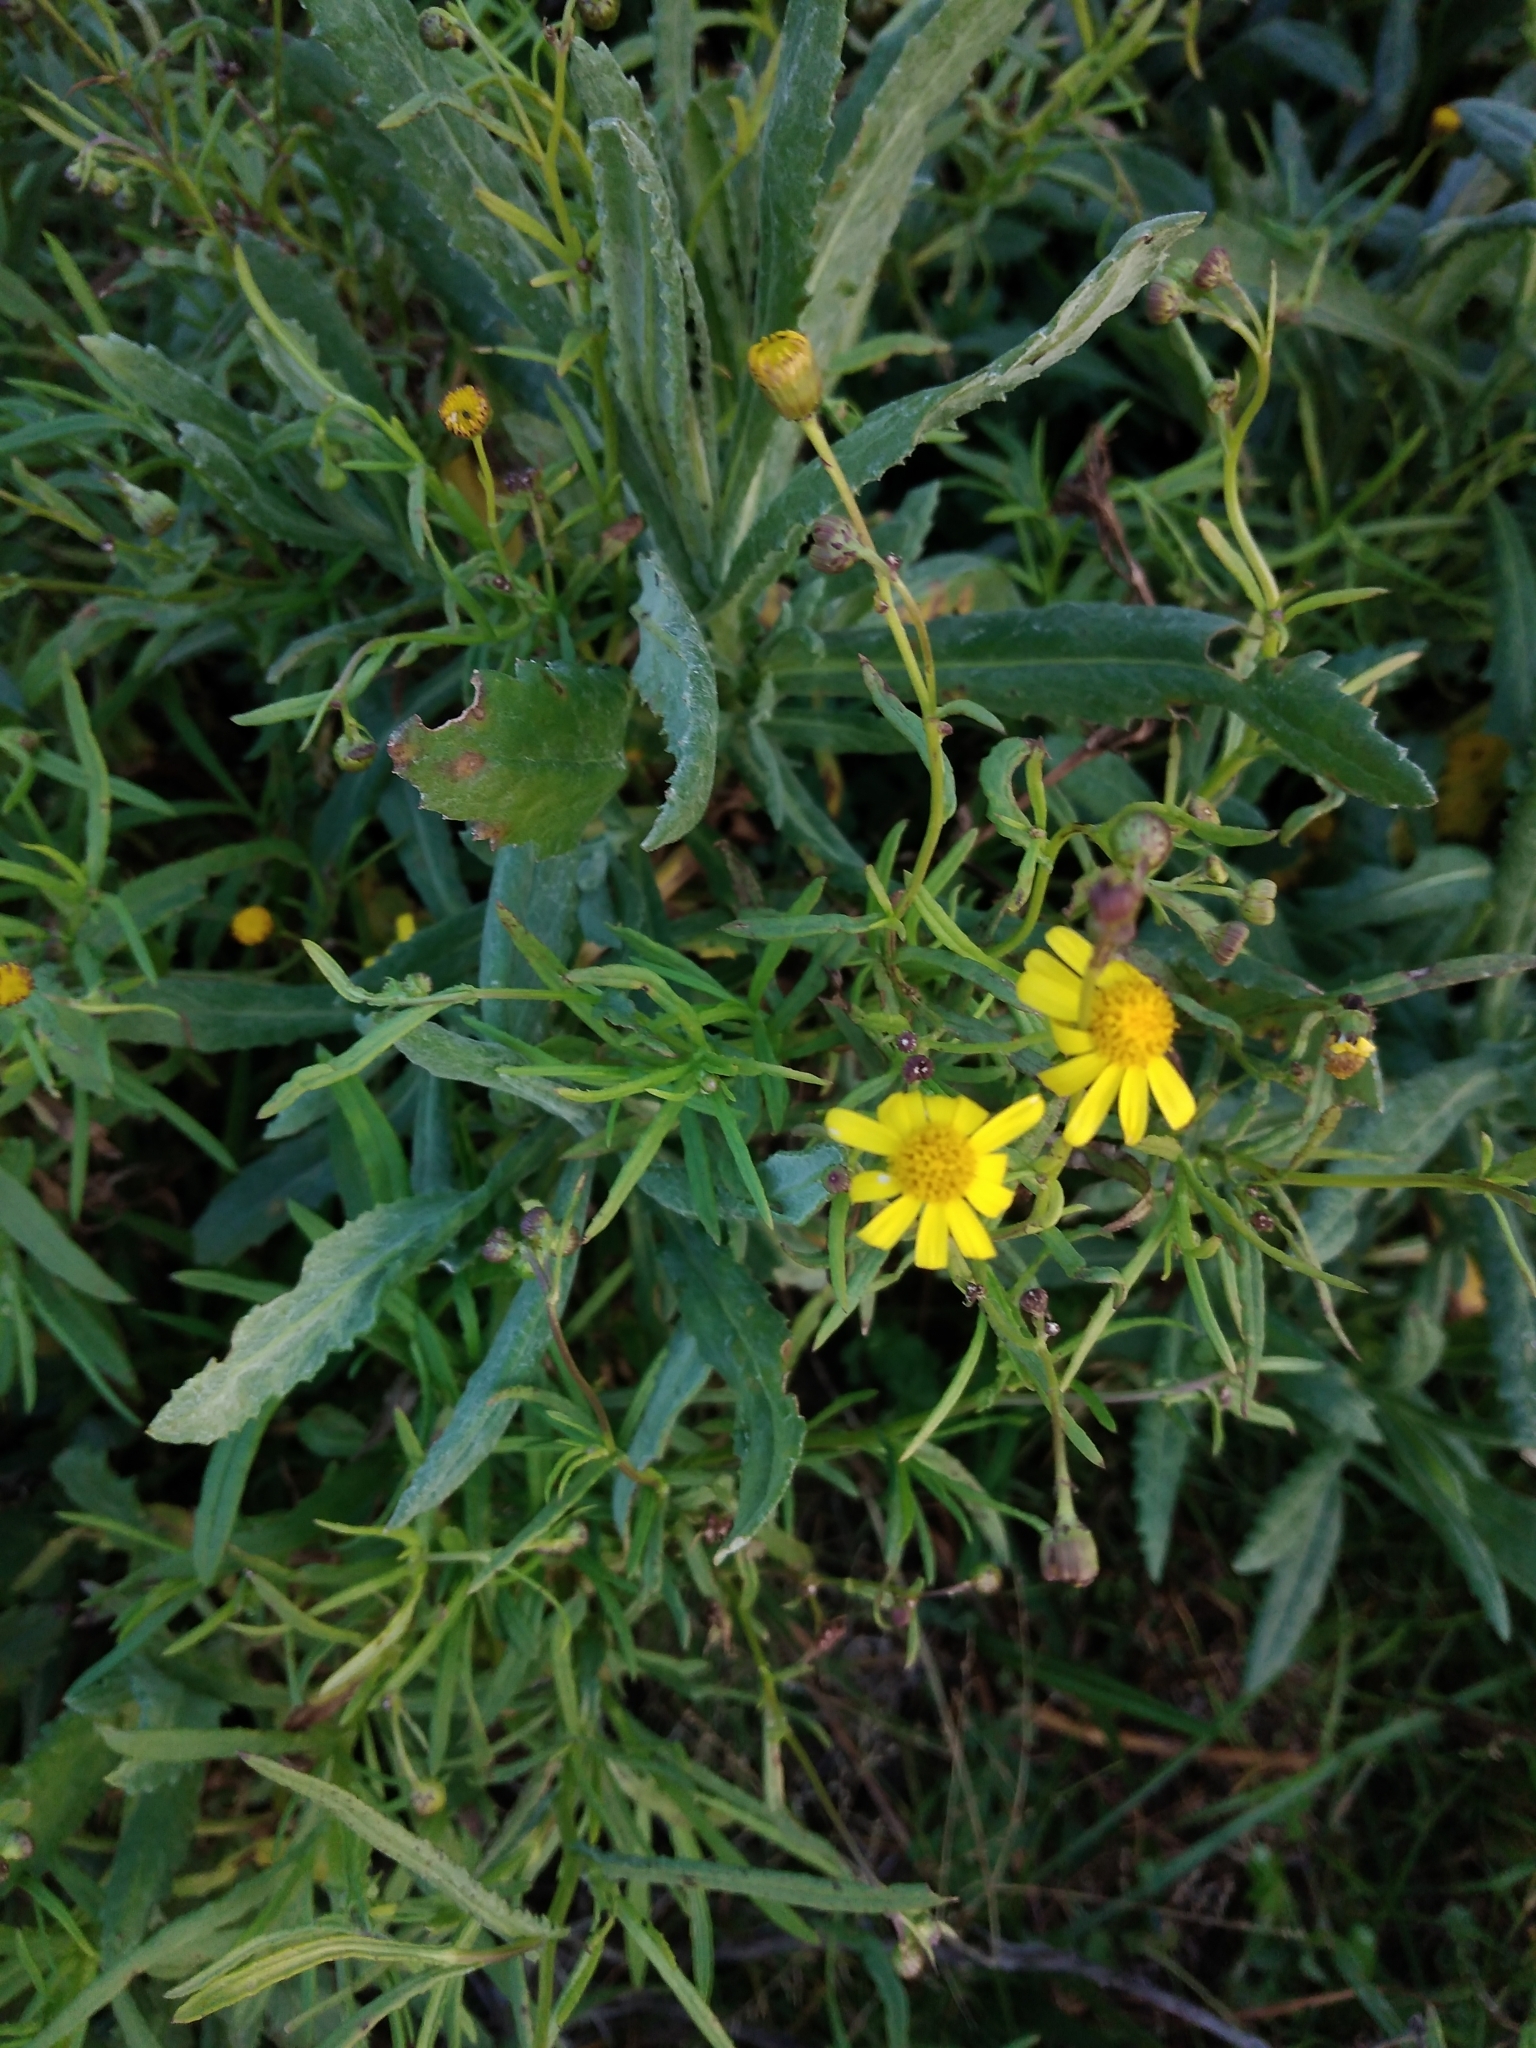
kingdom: Plantae
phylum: Tracheophyta
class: Magnoliopsida
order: Asterales
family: Asteraceae
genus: Senecio
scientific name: Senecio madagascariensis
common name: Madagascar ragwort
